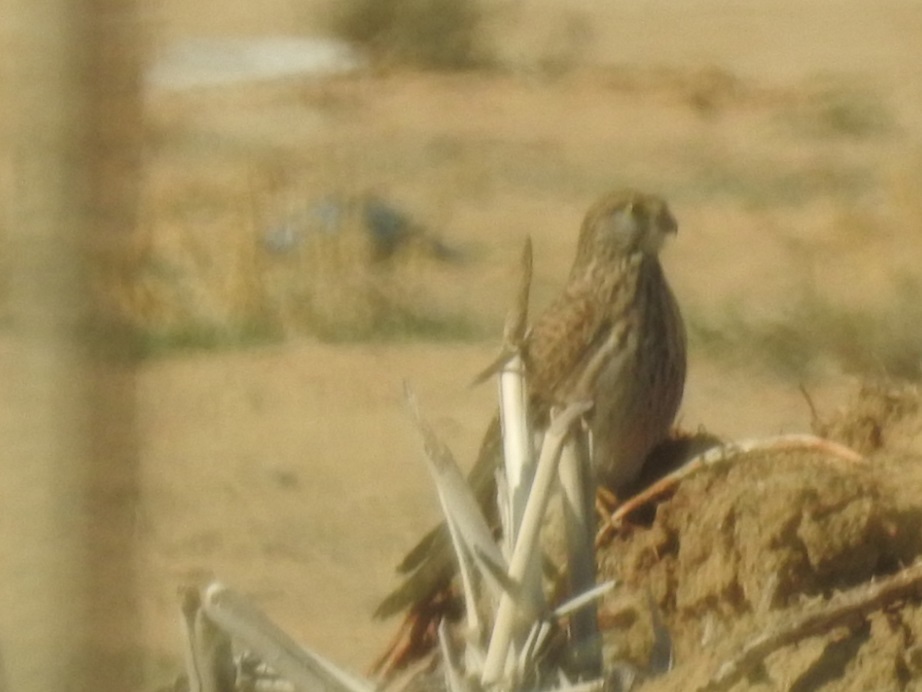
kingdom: Animalia
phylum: Chordata
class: Aves
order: Falconiformes
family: Falconidae
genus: Falco
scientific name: Falco tinnunculus
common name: Common kestrel
